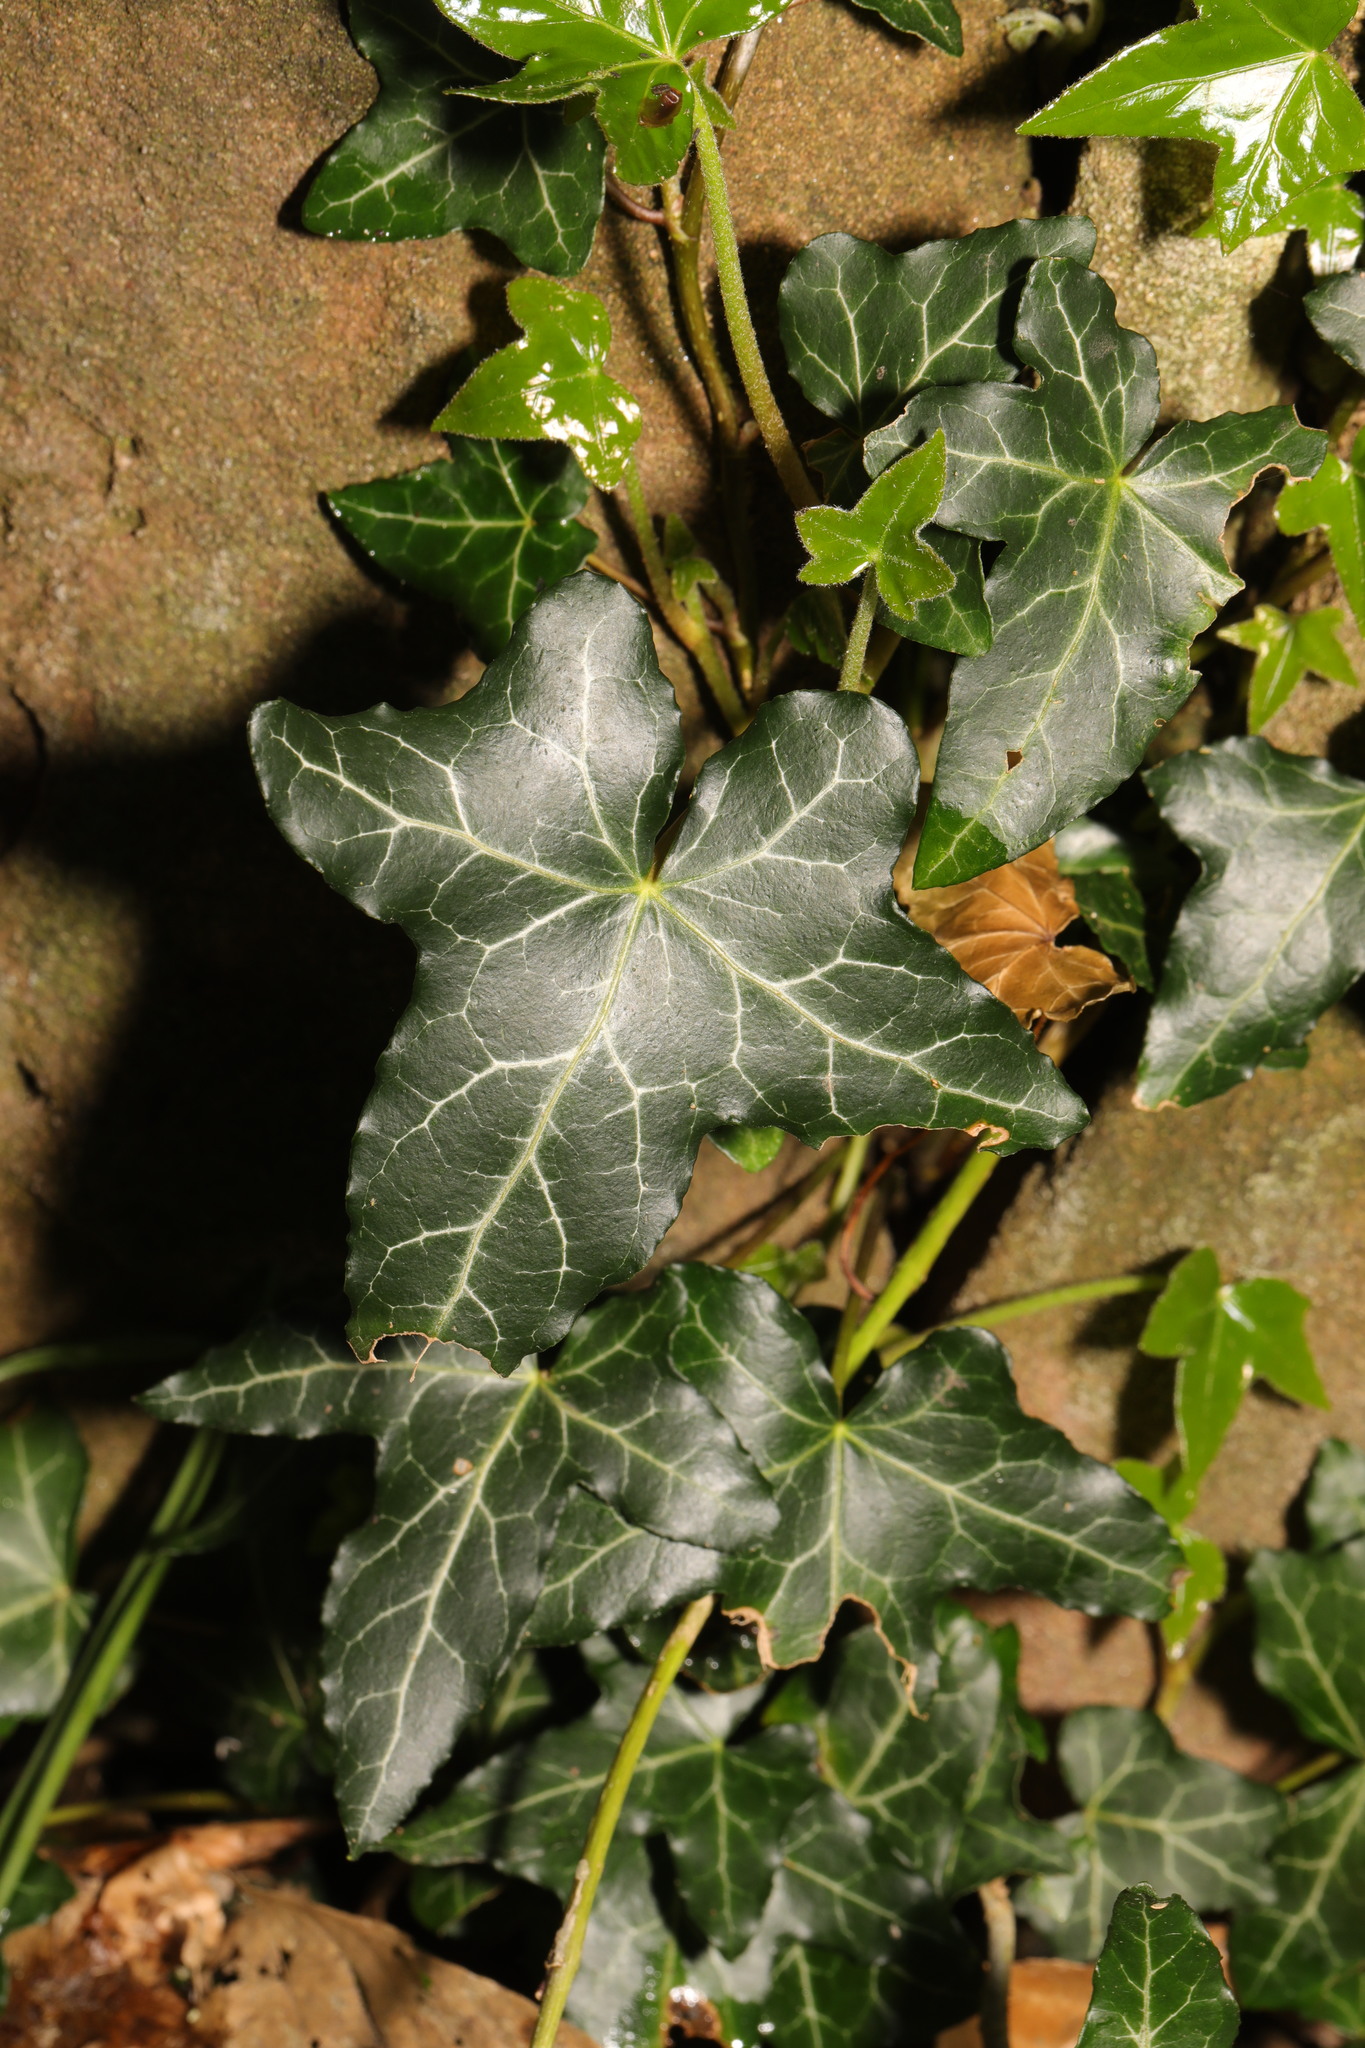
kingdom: Plantae
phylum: Tracheophyta
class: Magnoliopsida
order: Apiales
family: Araliaceae
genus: Hedera
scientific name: Hedera helix
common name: Ivy
